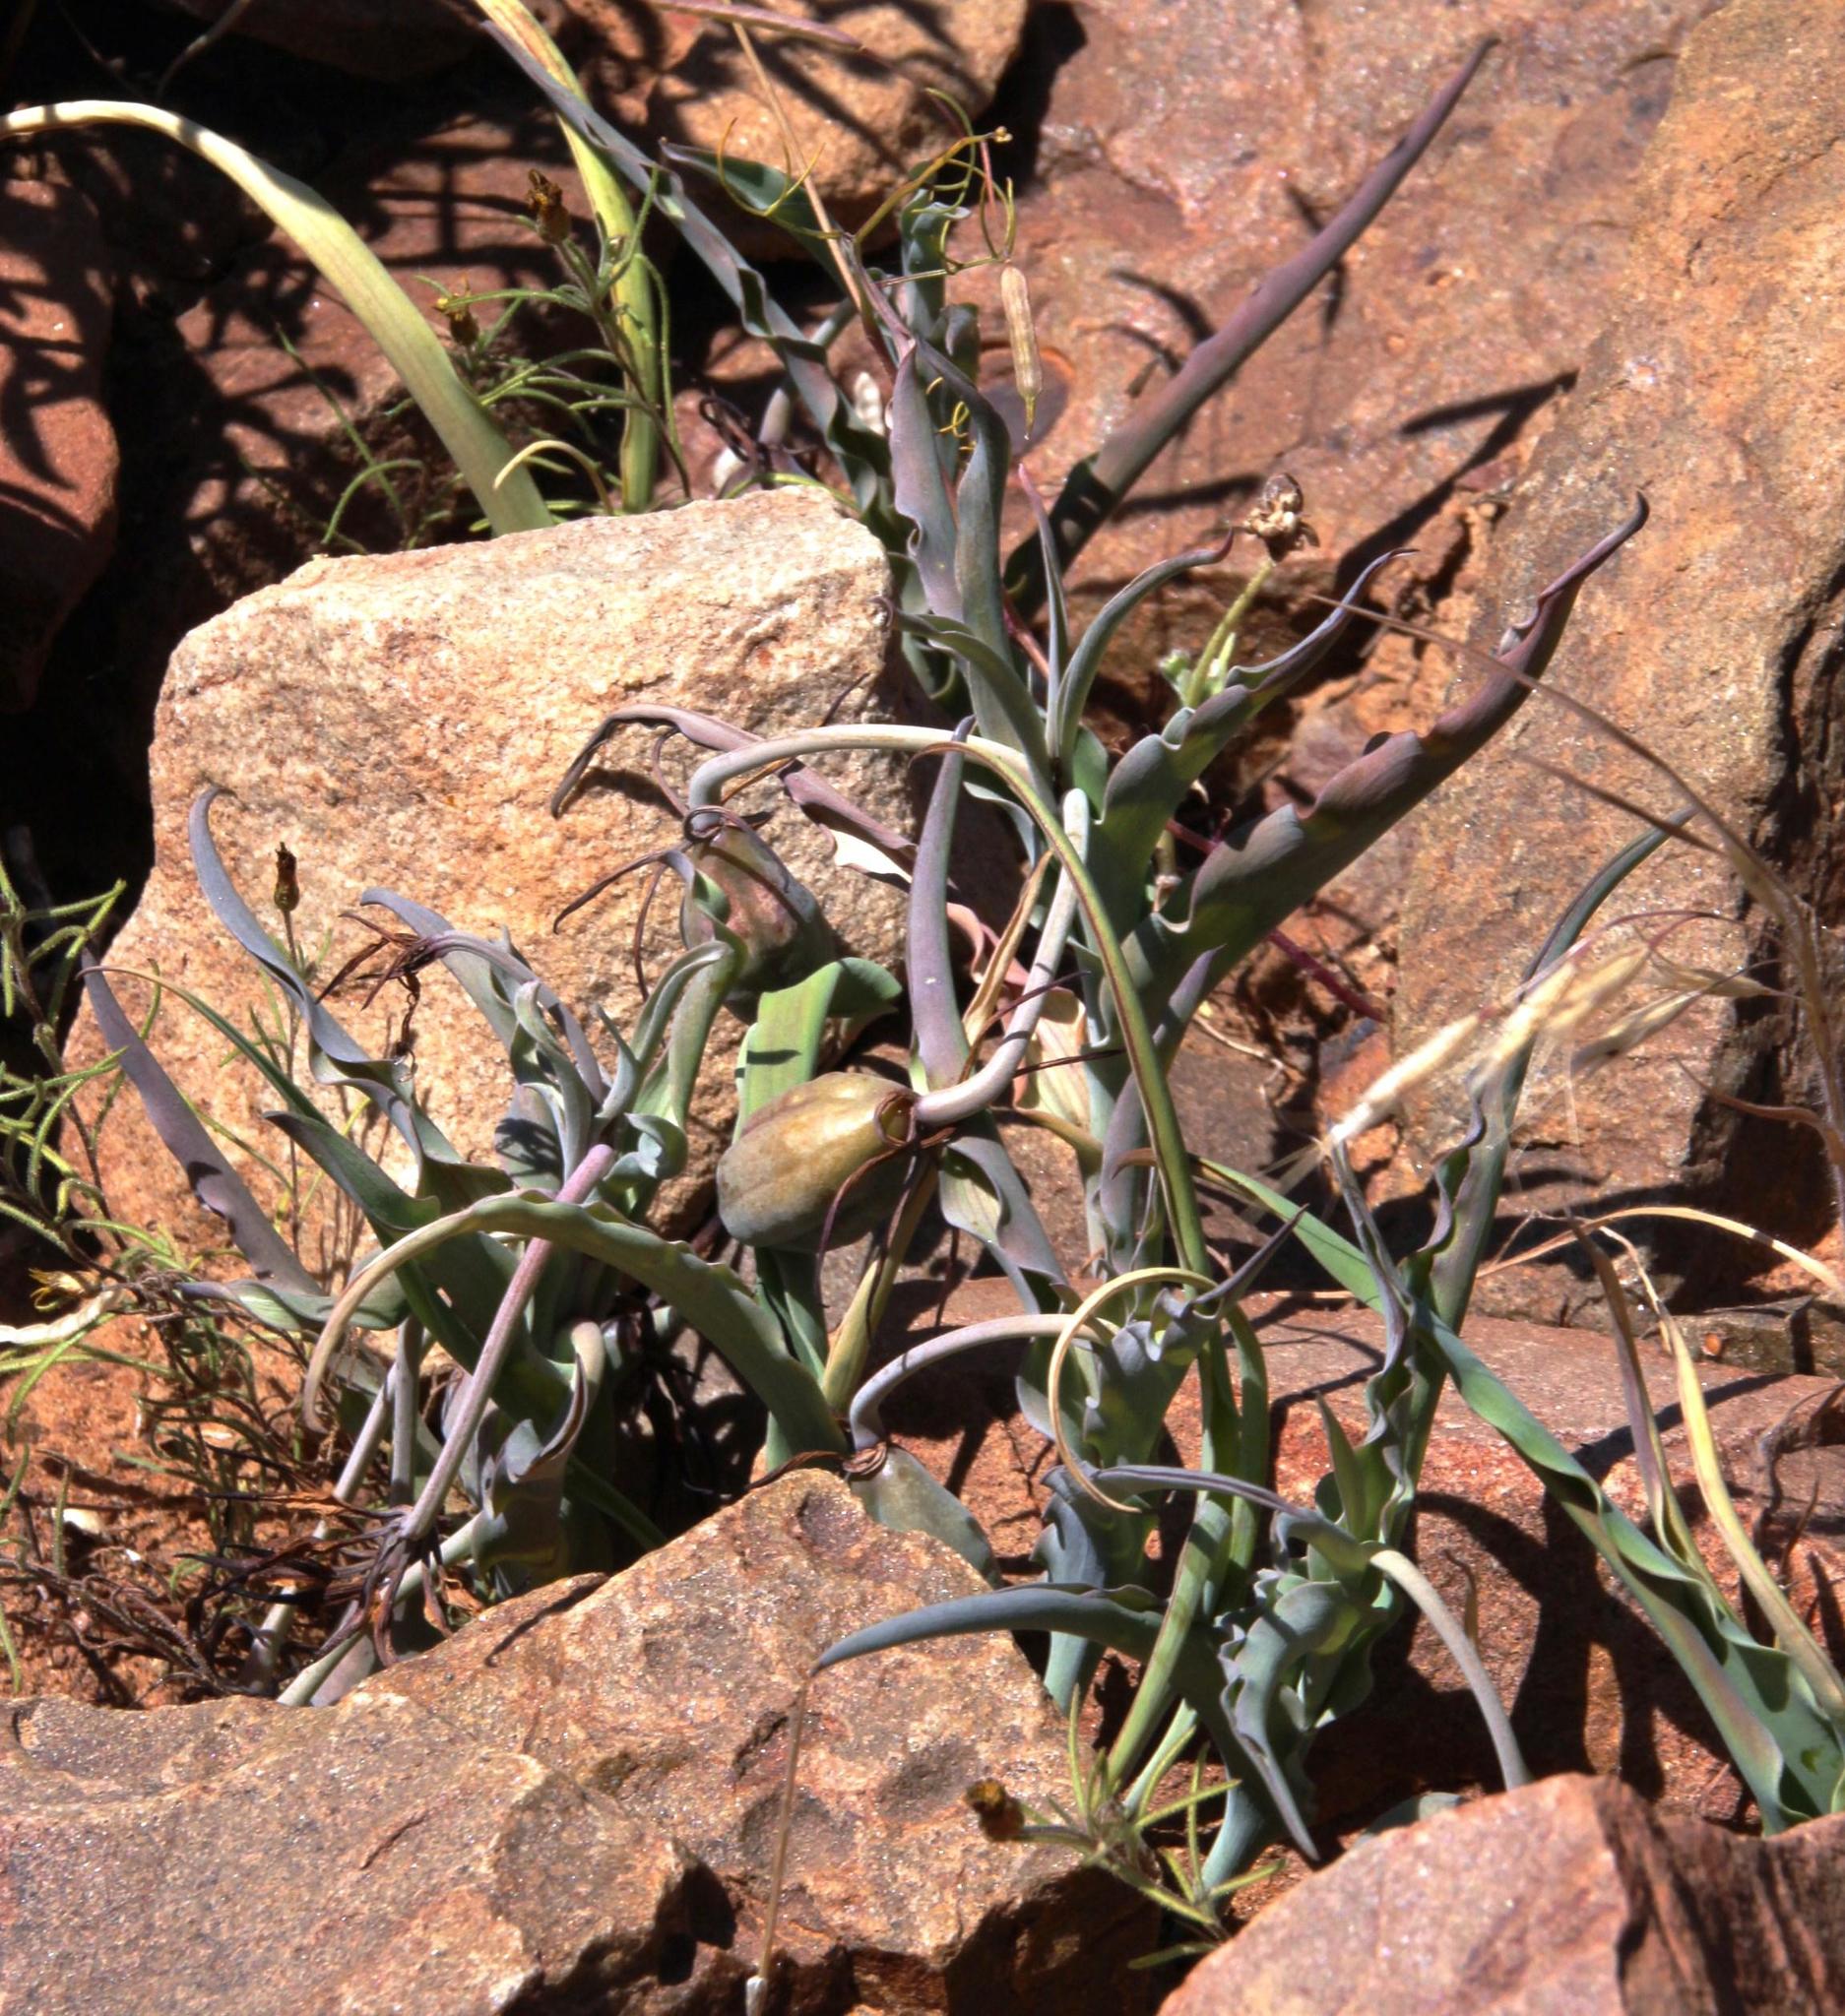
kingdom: Plantae
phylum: Tracheophyta
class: Liliopsida
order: Liliales
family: Colchicaceae
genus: Ornithoglossum
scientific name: Ornithoglossum undulatum
